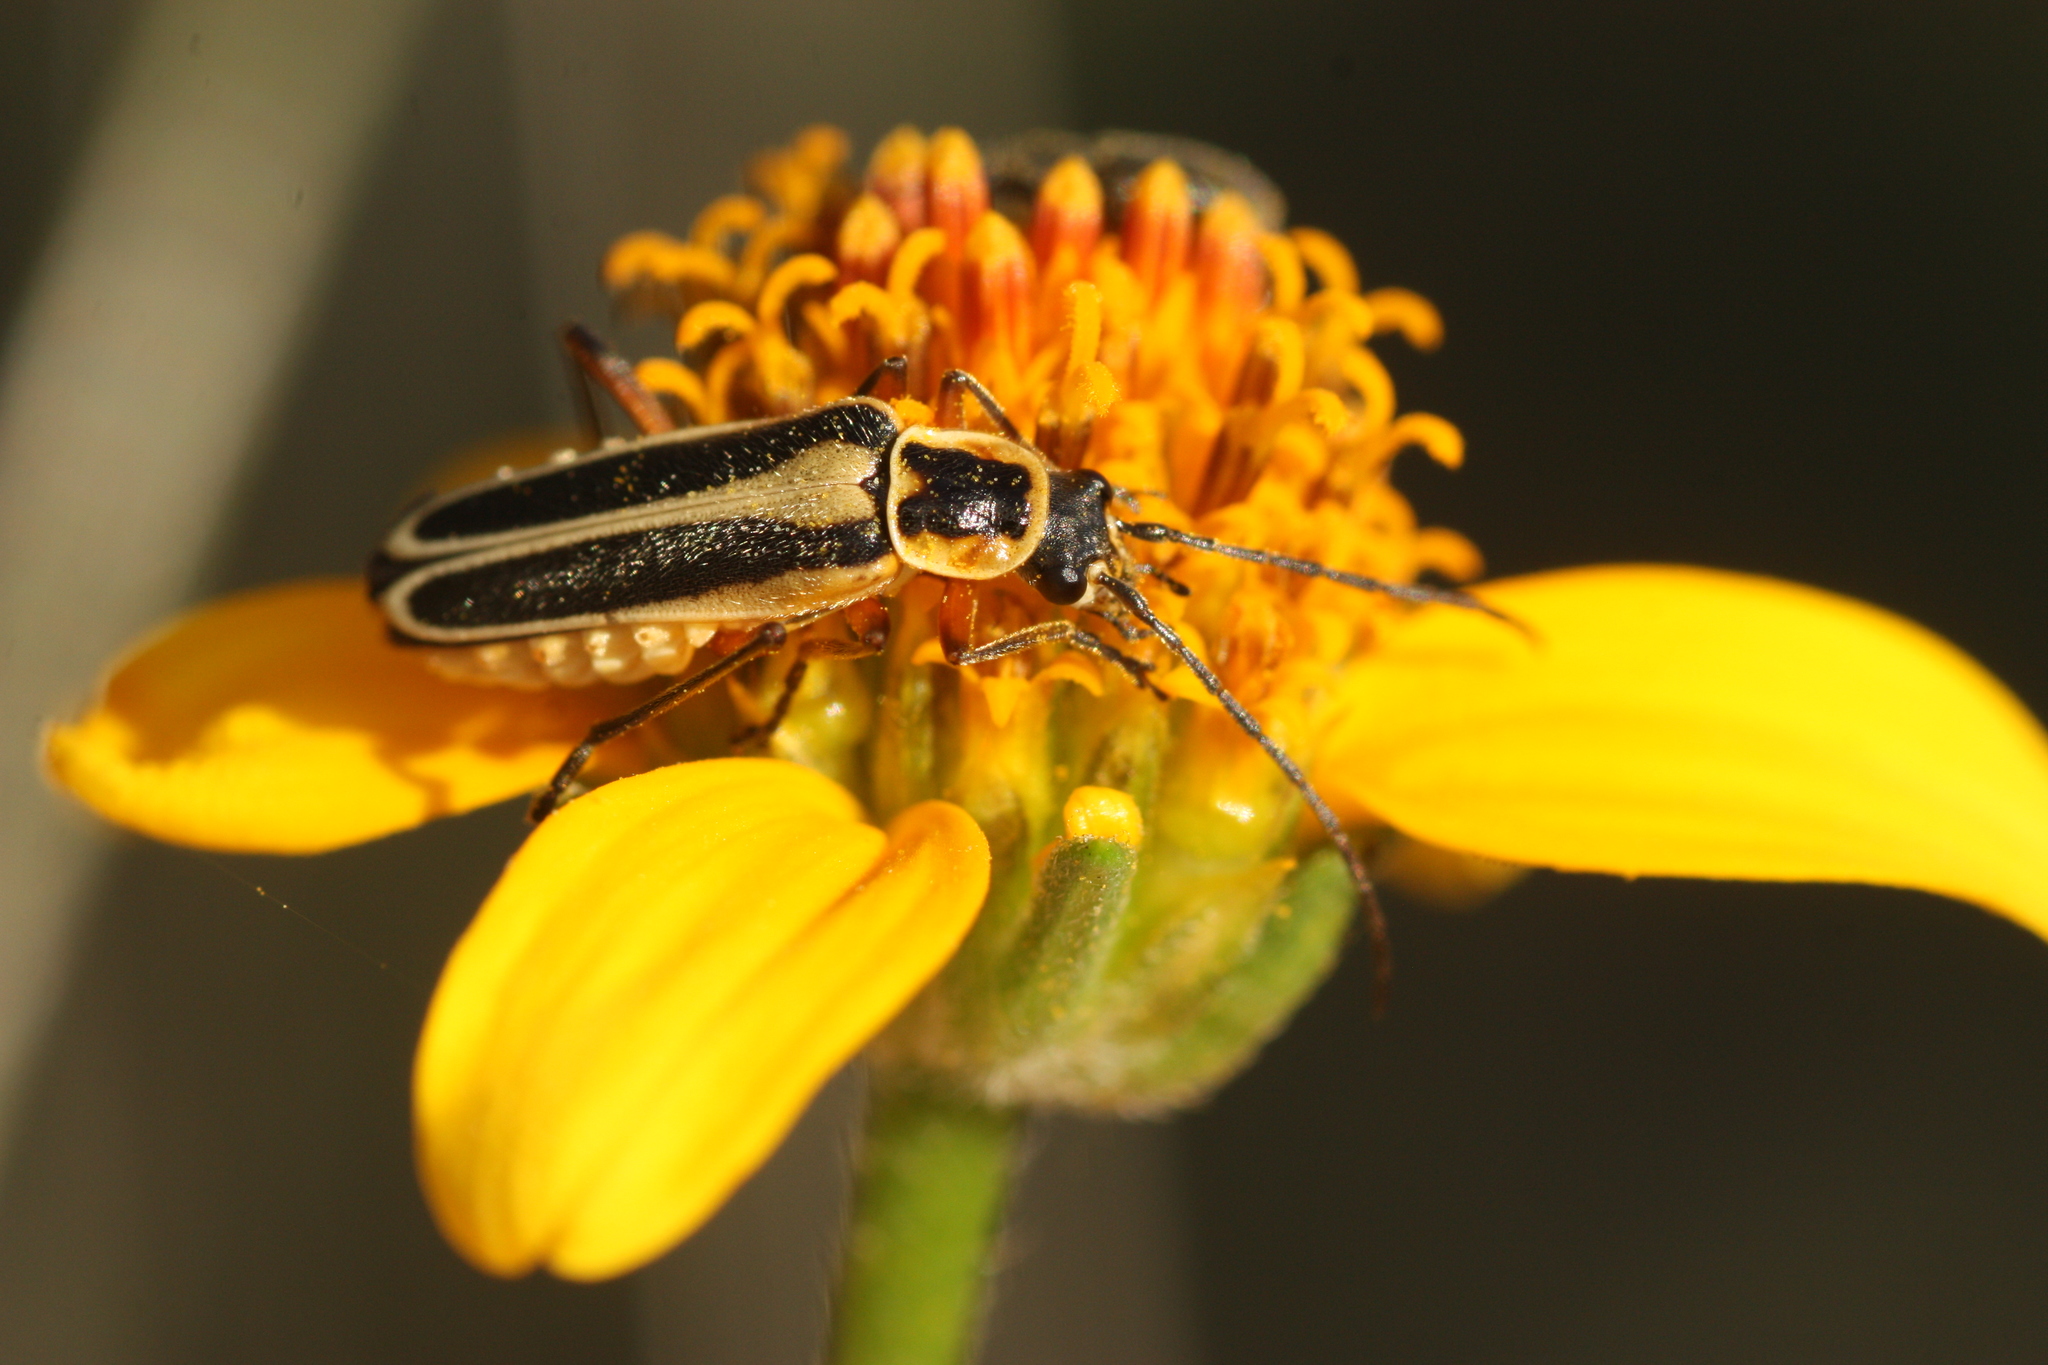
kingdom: Animalia
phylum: Arthropoda
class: Insecta
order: Coleoptera
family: Cantharidae
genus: Chauliognathus
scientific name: Chauliognathus lewisi
